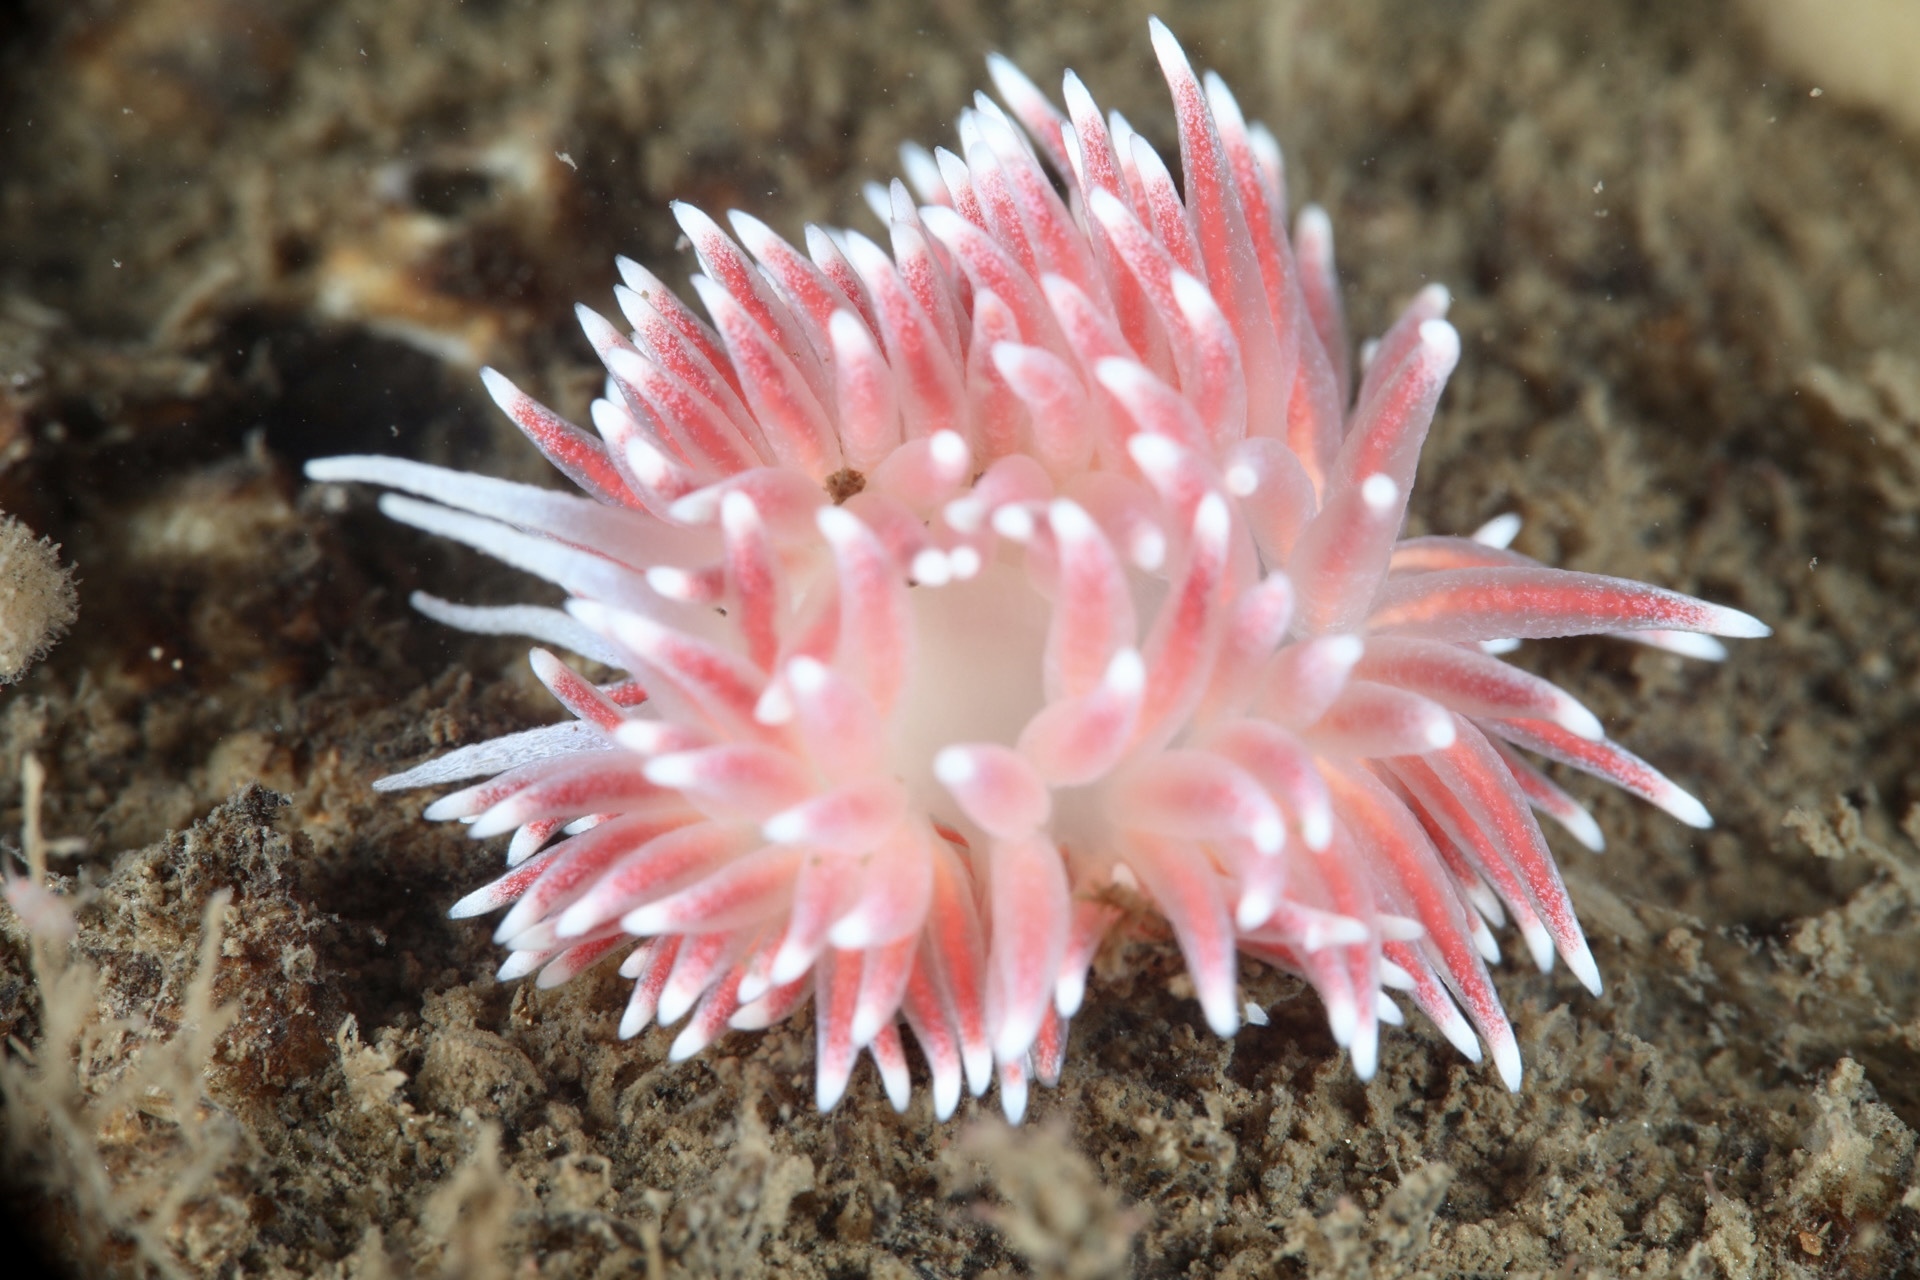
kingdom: Animalia
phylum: Mollusca
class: Gastropoda
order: Nudibranchia
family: Flabellinidae
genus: Carronella
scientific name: Carronella pellucida
